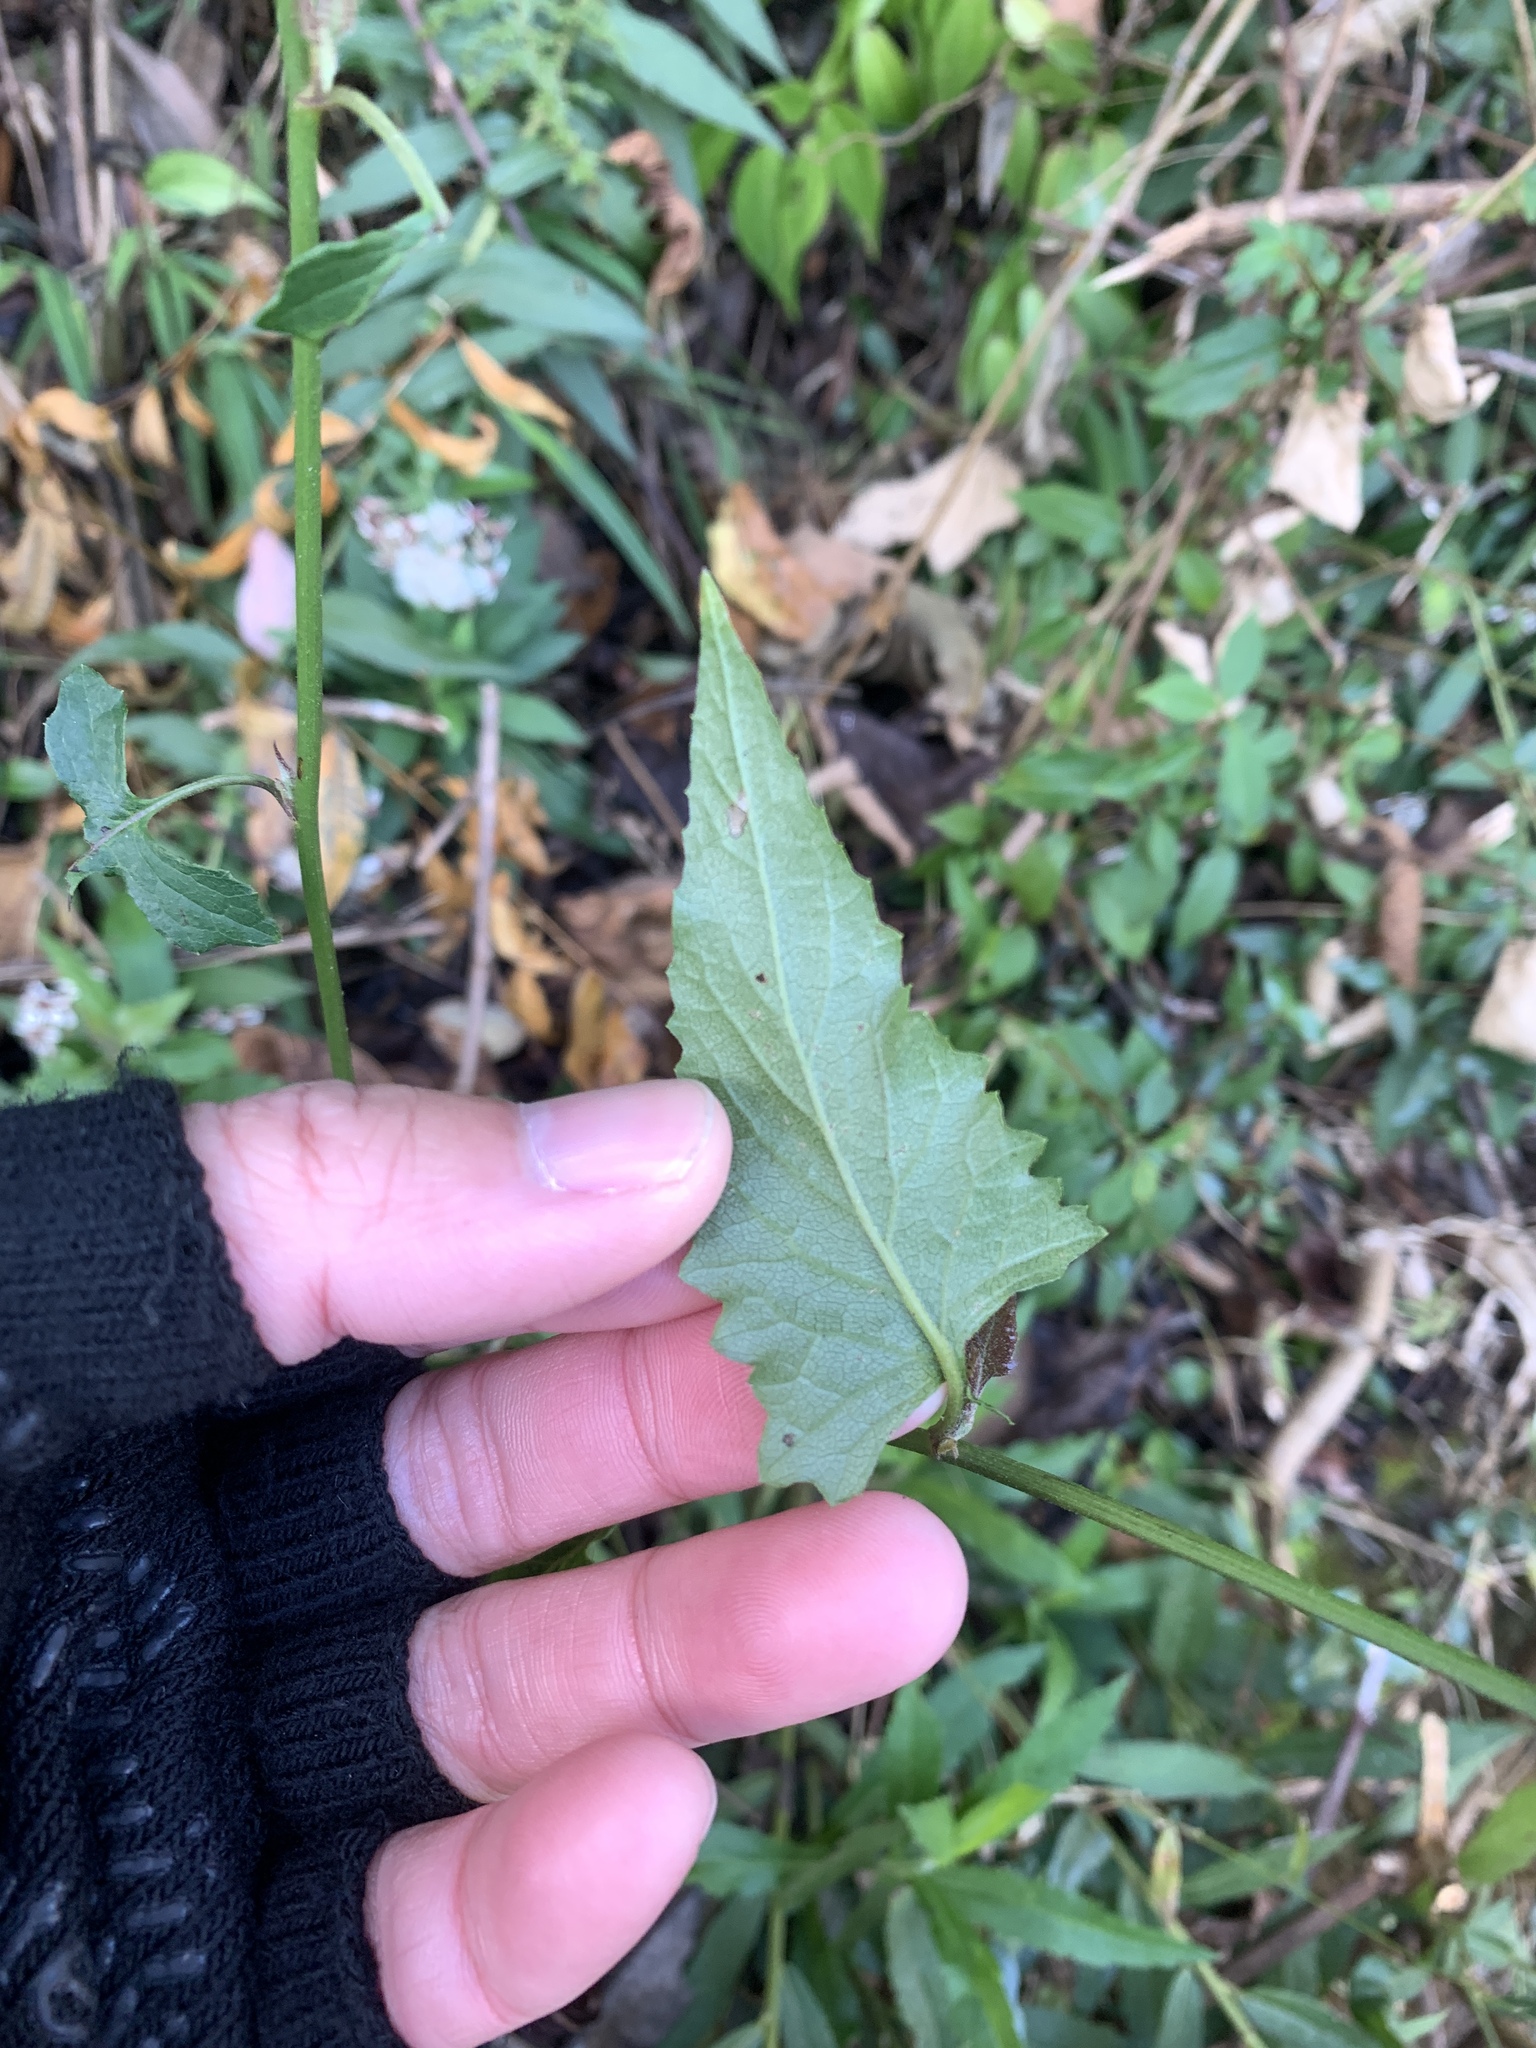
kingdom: Plantae
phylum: Tracheophyta
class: Magnoliopsida
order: Asterales
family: Asteraceae
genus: Senecio
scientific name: Senecio scandens
